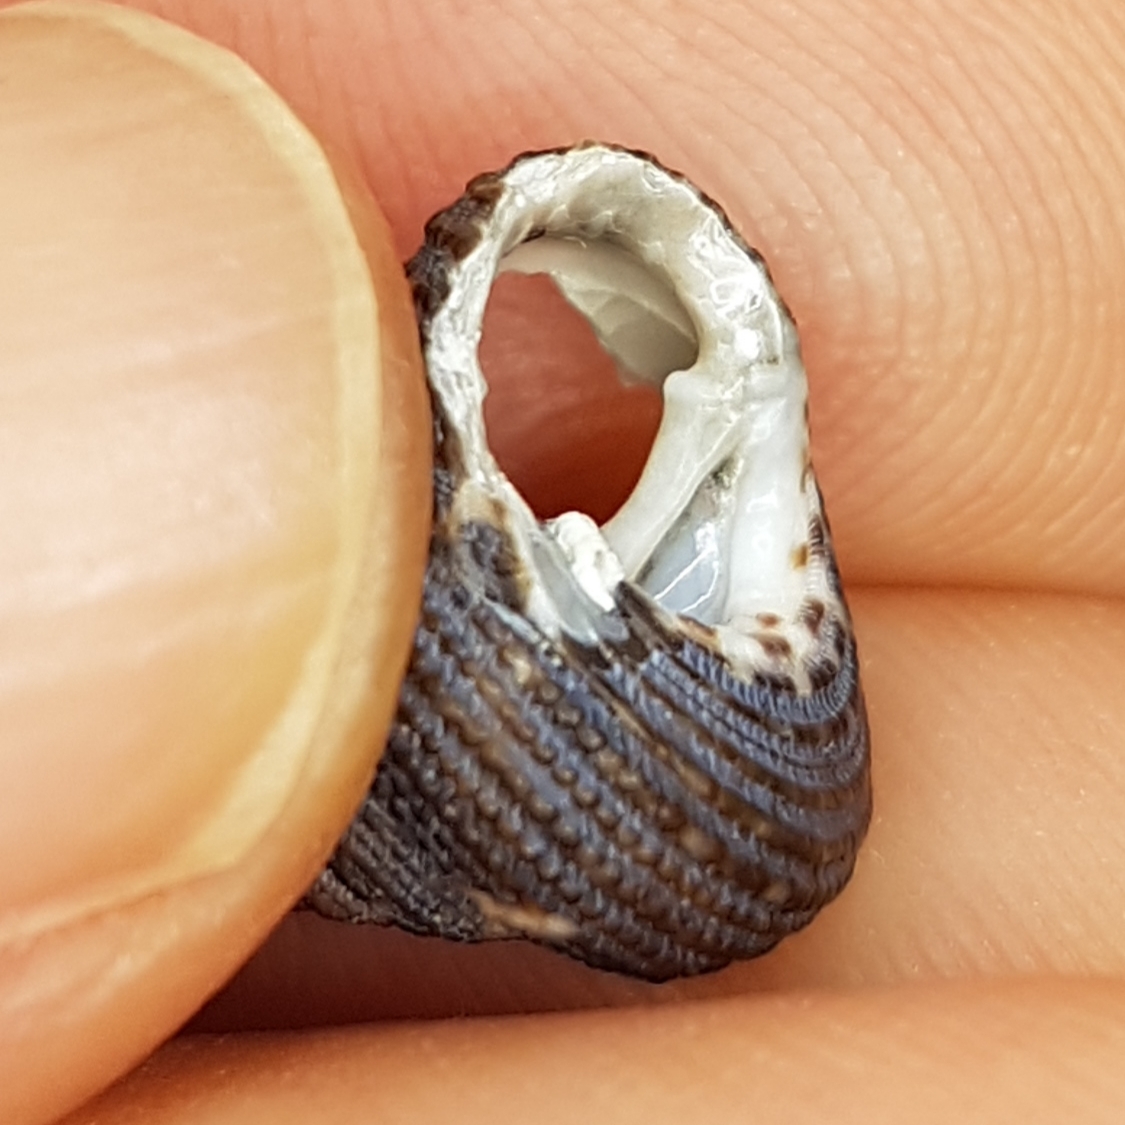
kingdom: Animalia
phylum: Mollusca
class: Gastropoda
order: Trochida
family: Trochidae
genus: Clanculus
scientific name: Clanculus cruciatus
